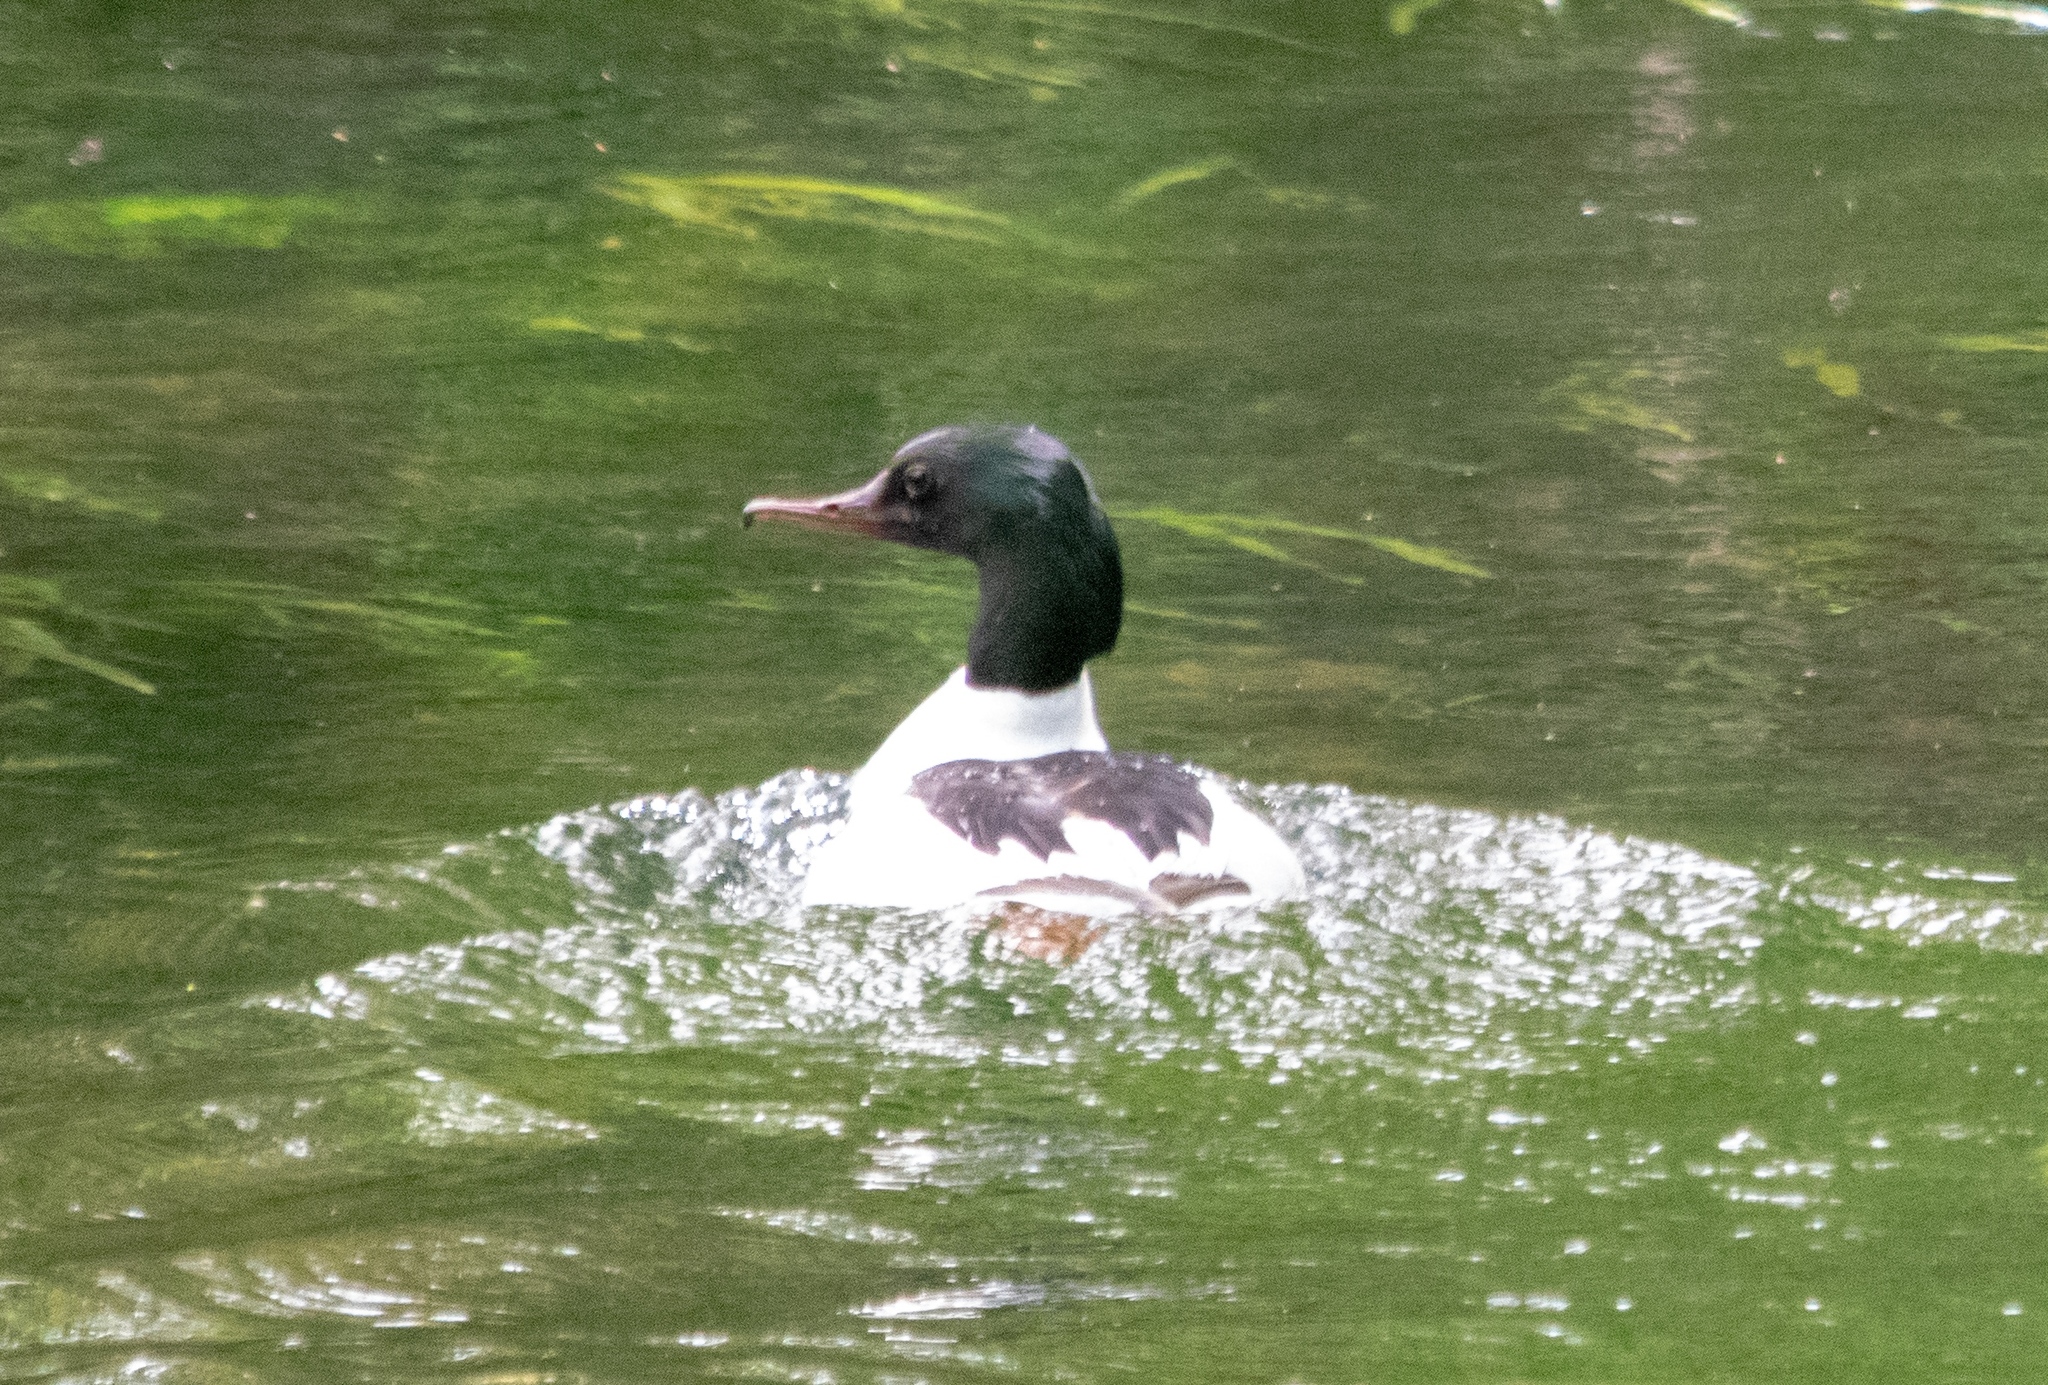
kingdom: Animalia
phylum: Chordata
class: Aves
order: Anseriformes
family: Anatidae
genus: Mergus
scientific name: Mergus merganser
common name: Common merganser
